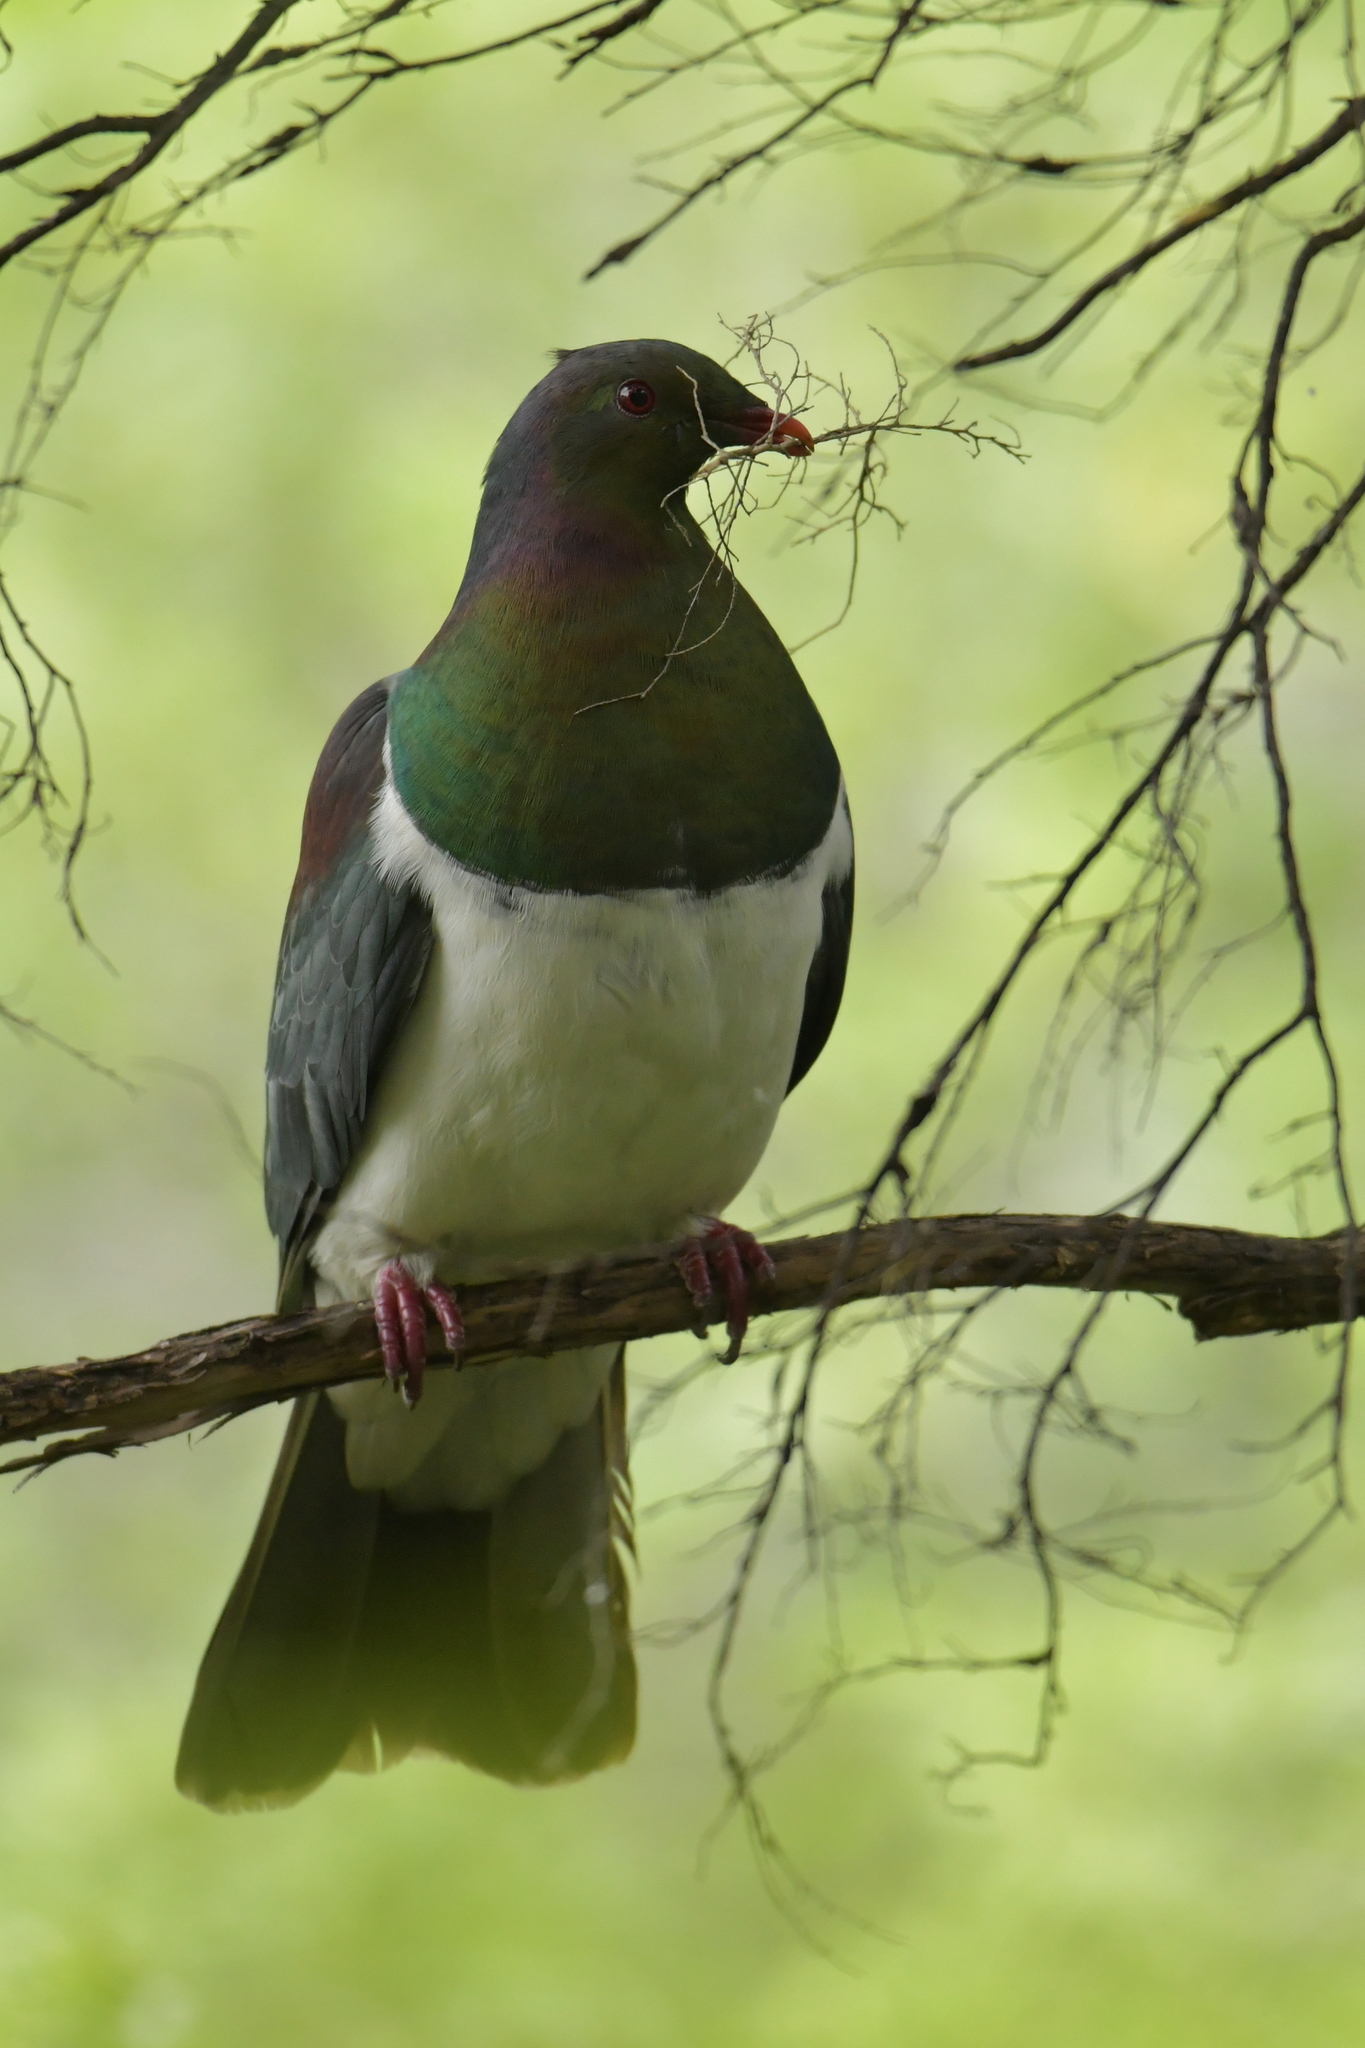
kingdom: Animalia
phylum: Chordata
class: Aves
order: Columbiformes
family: Columbidae
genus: Hemiphaga
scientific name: Hemiphaga novaeseelandiae
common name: New zealand pigeon
